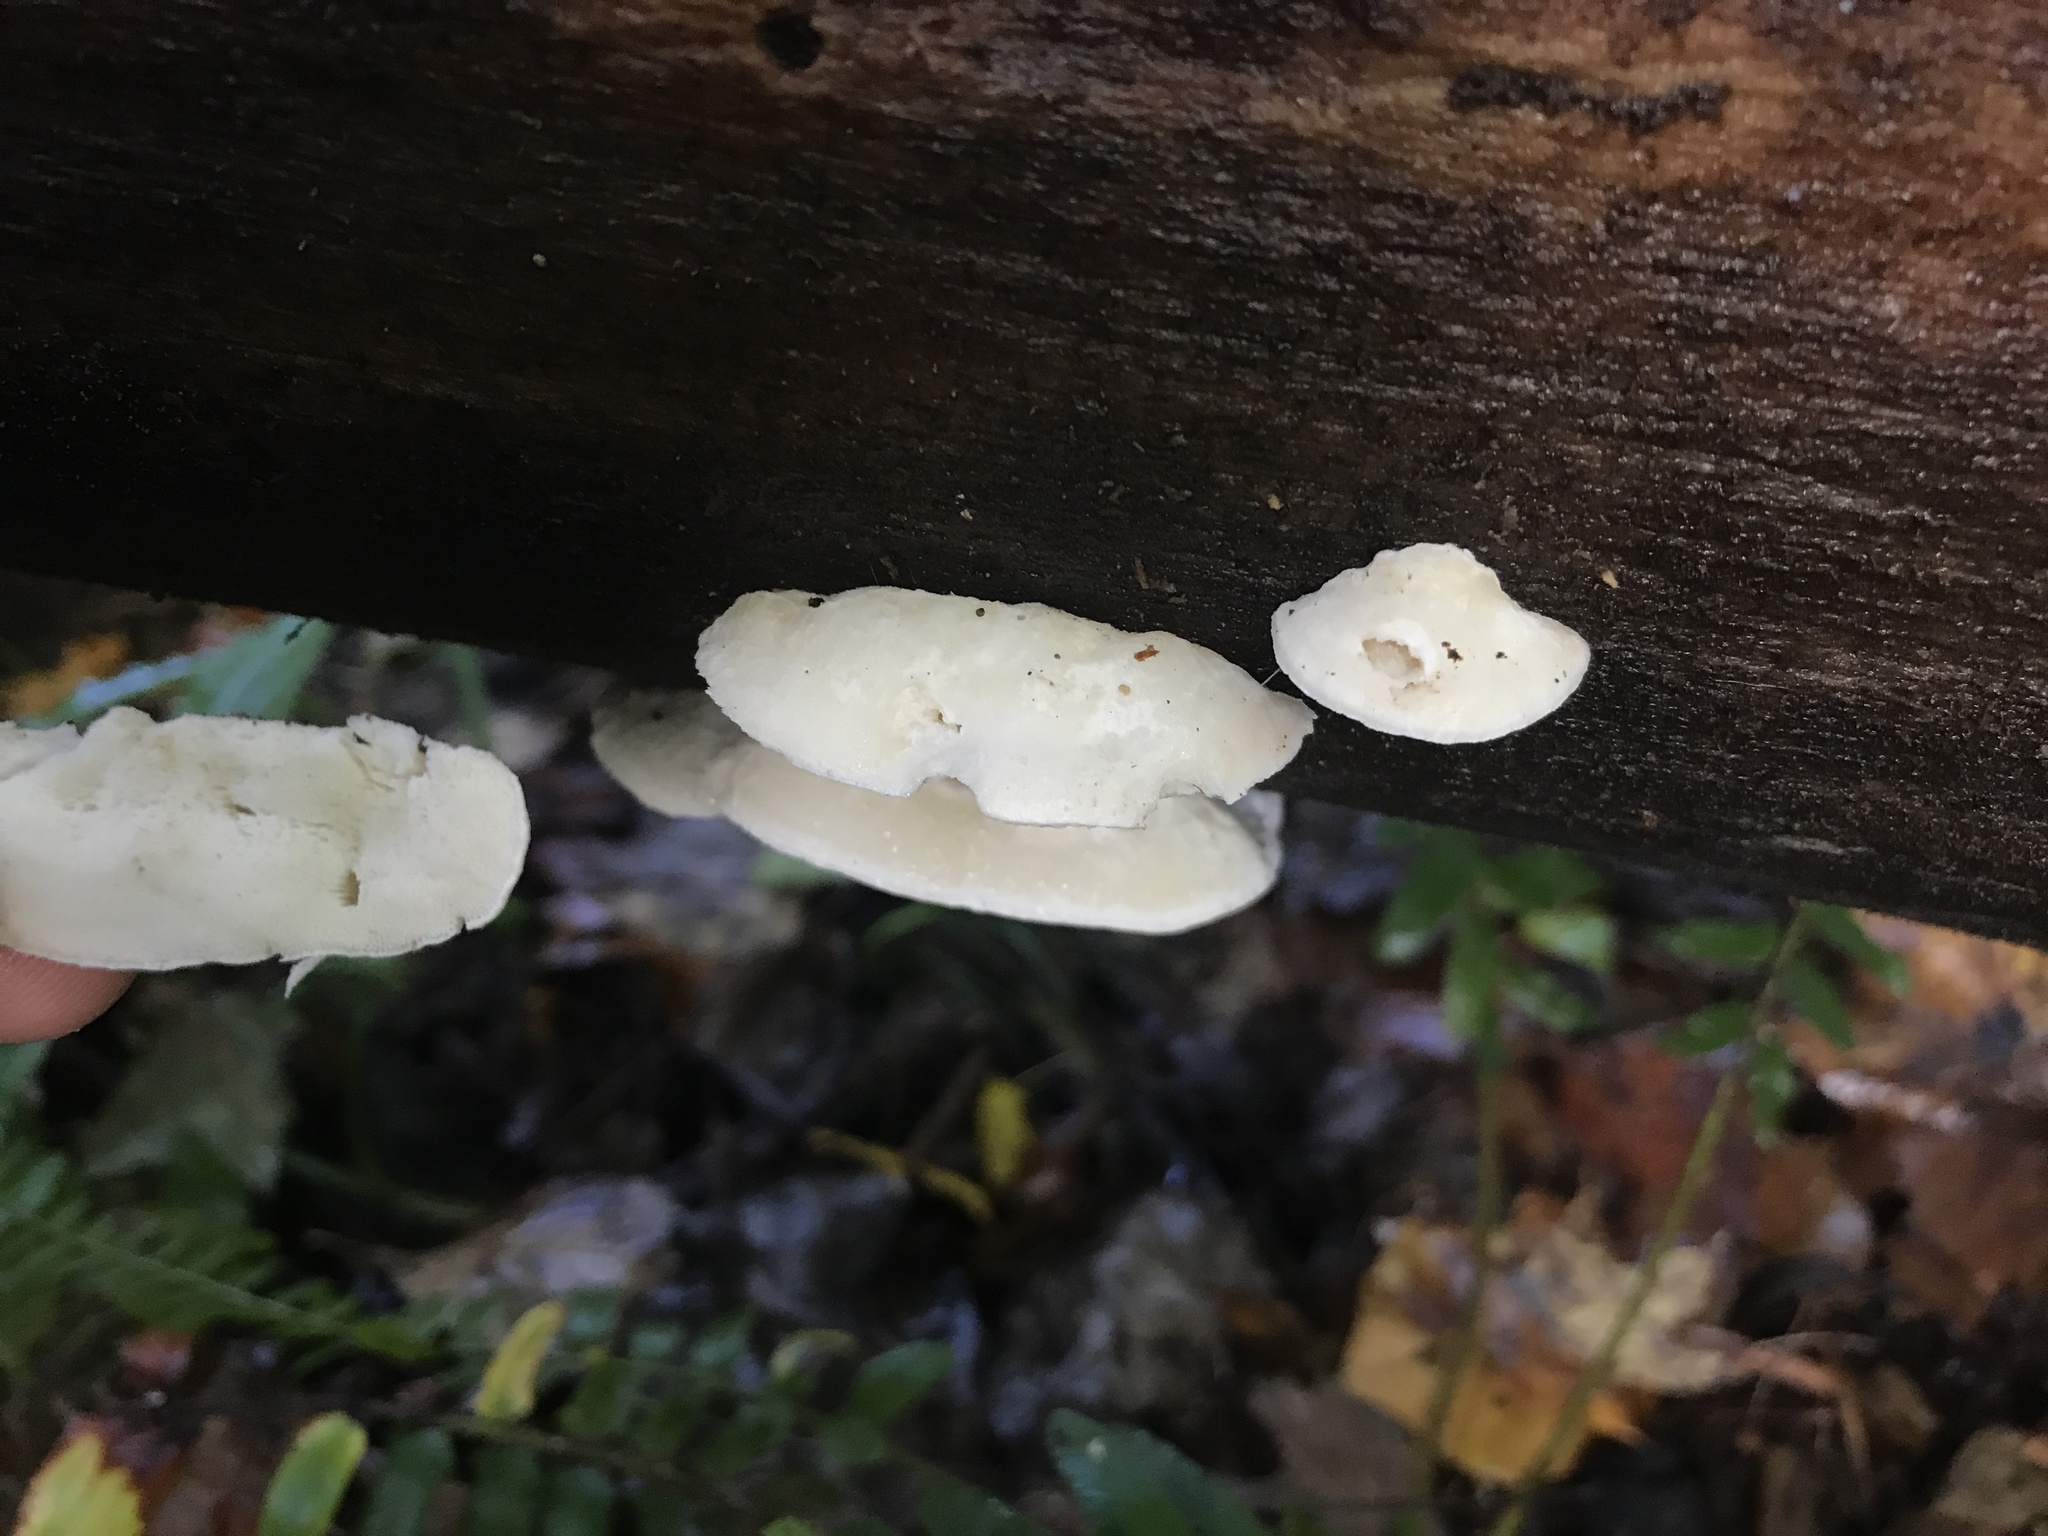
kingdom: Fungi
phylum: Basidiomycota
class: Agaricomycetes
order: Polyporales
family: Incrustoporiaceae
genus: Tyromyces
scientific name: Tyromyces chioneus
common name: White cheese polypore
